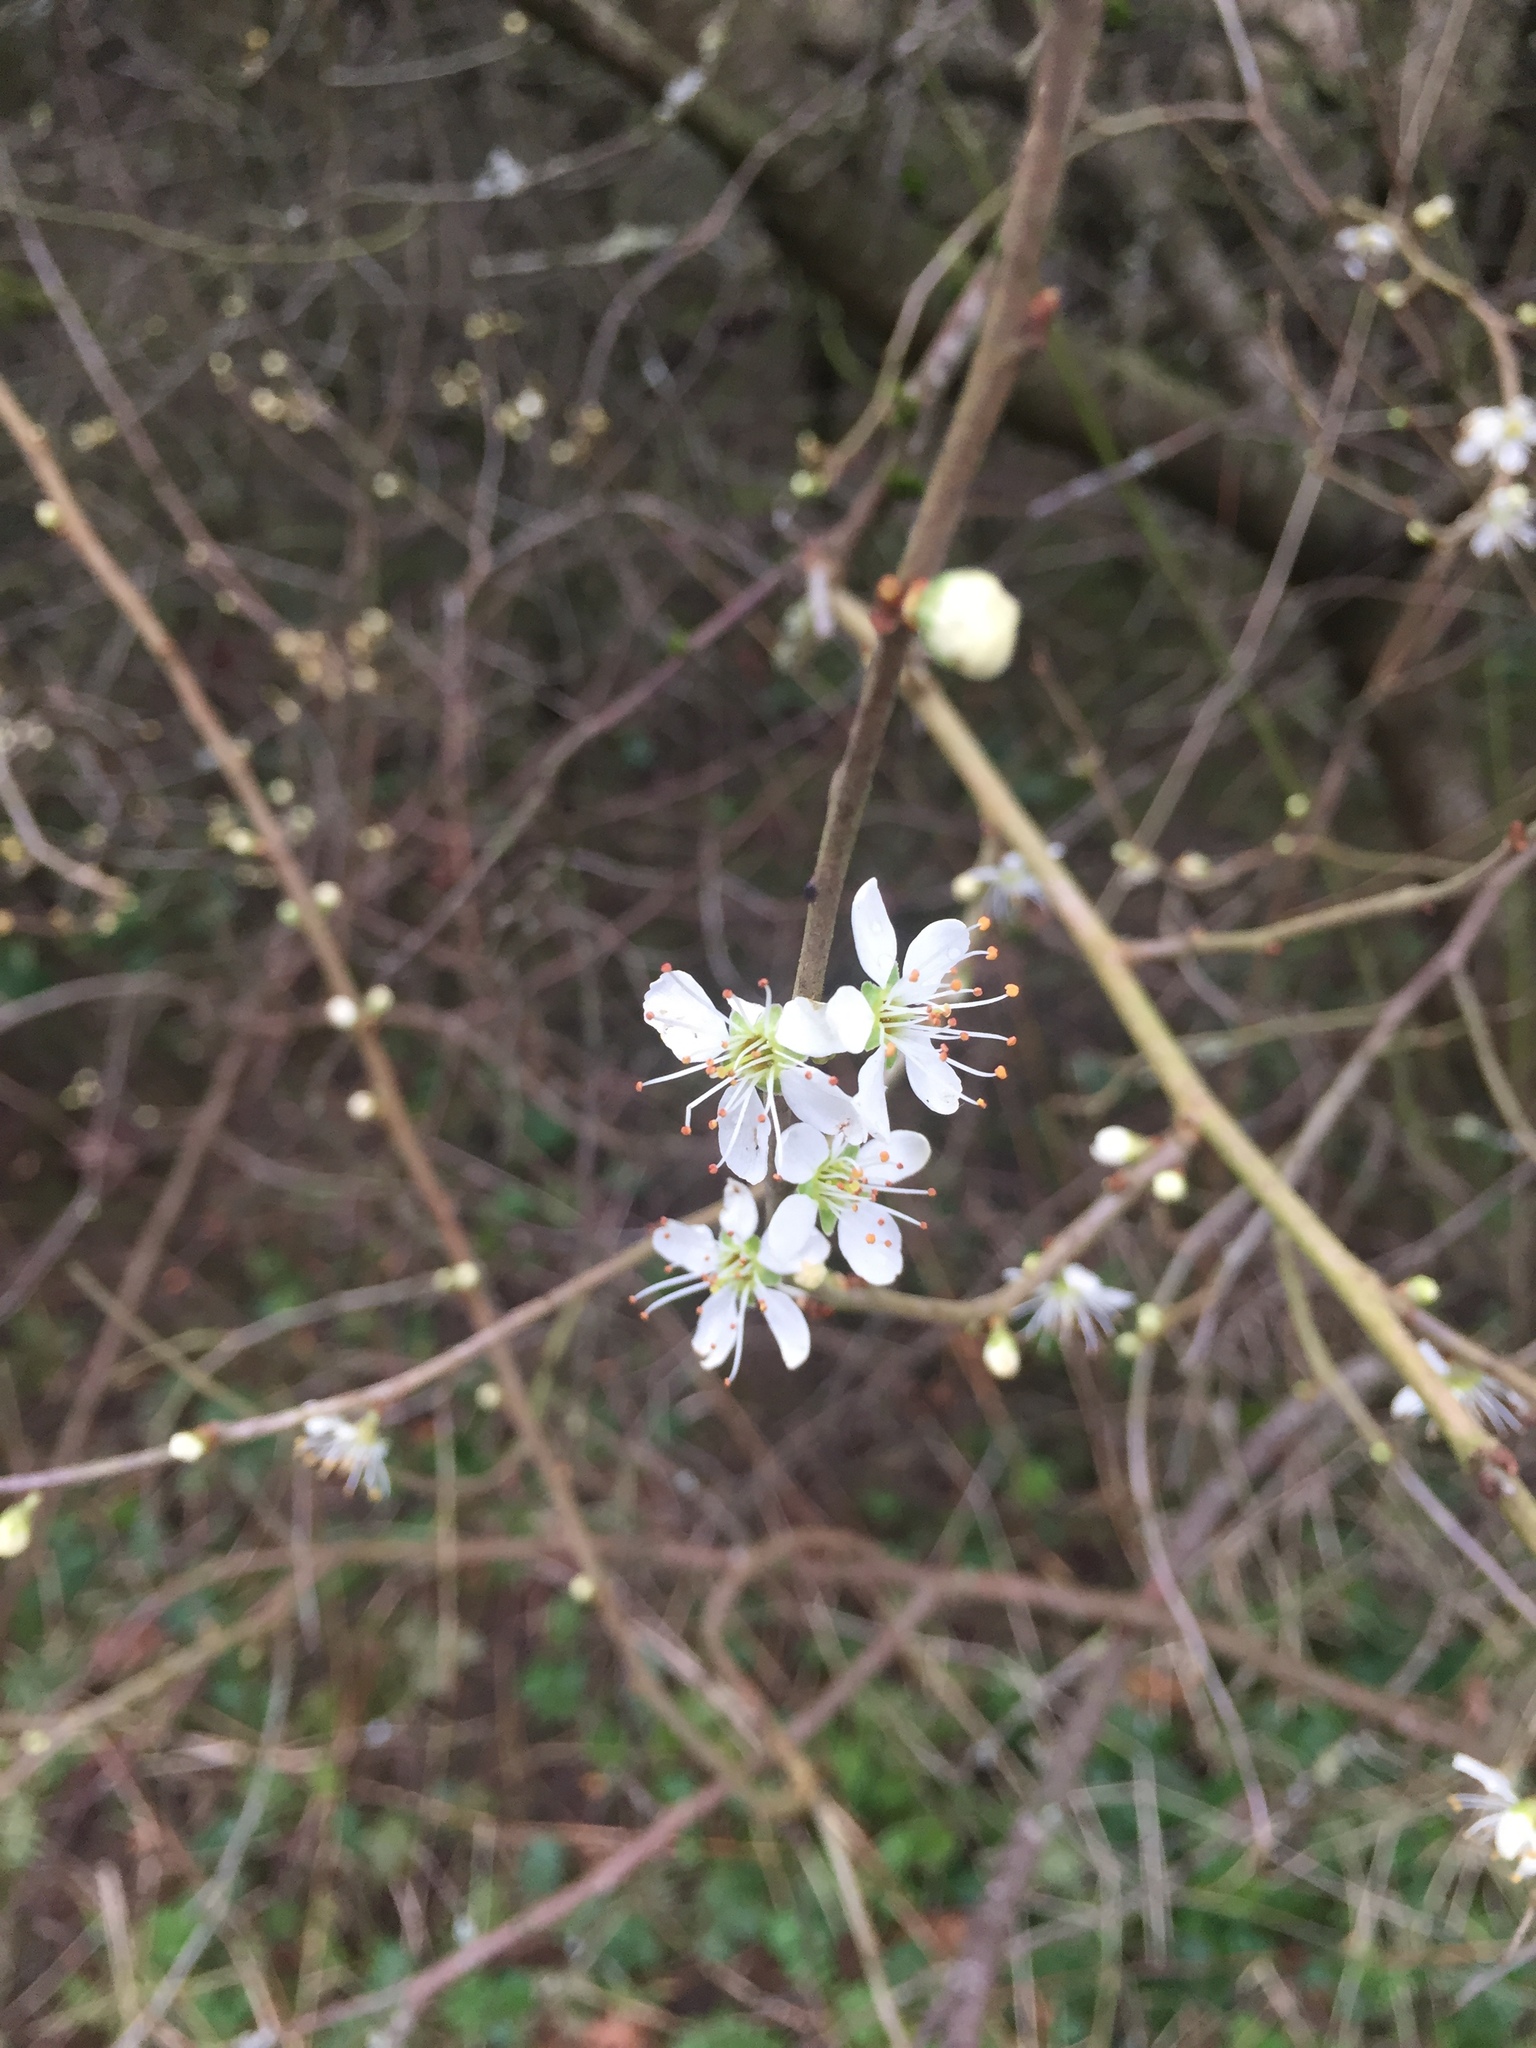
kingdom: Plantae
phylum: Tracheophyta
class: Magnoliopsida
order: Rosales
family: Rosaceae
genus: Prunus
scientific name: Prunus spinosa
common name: Blackthorn
